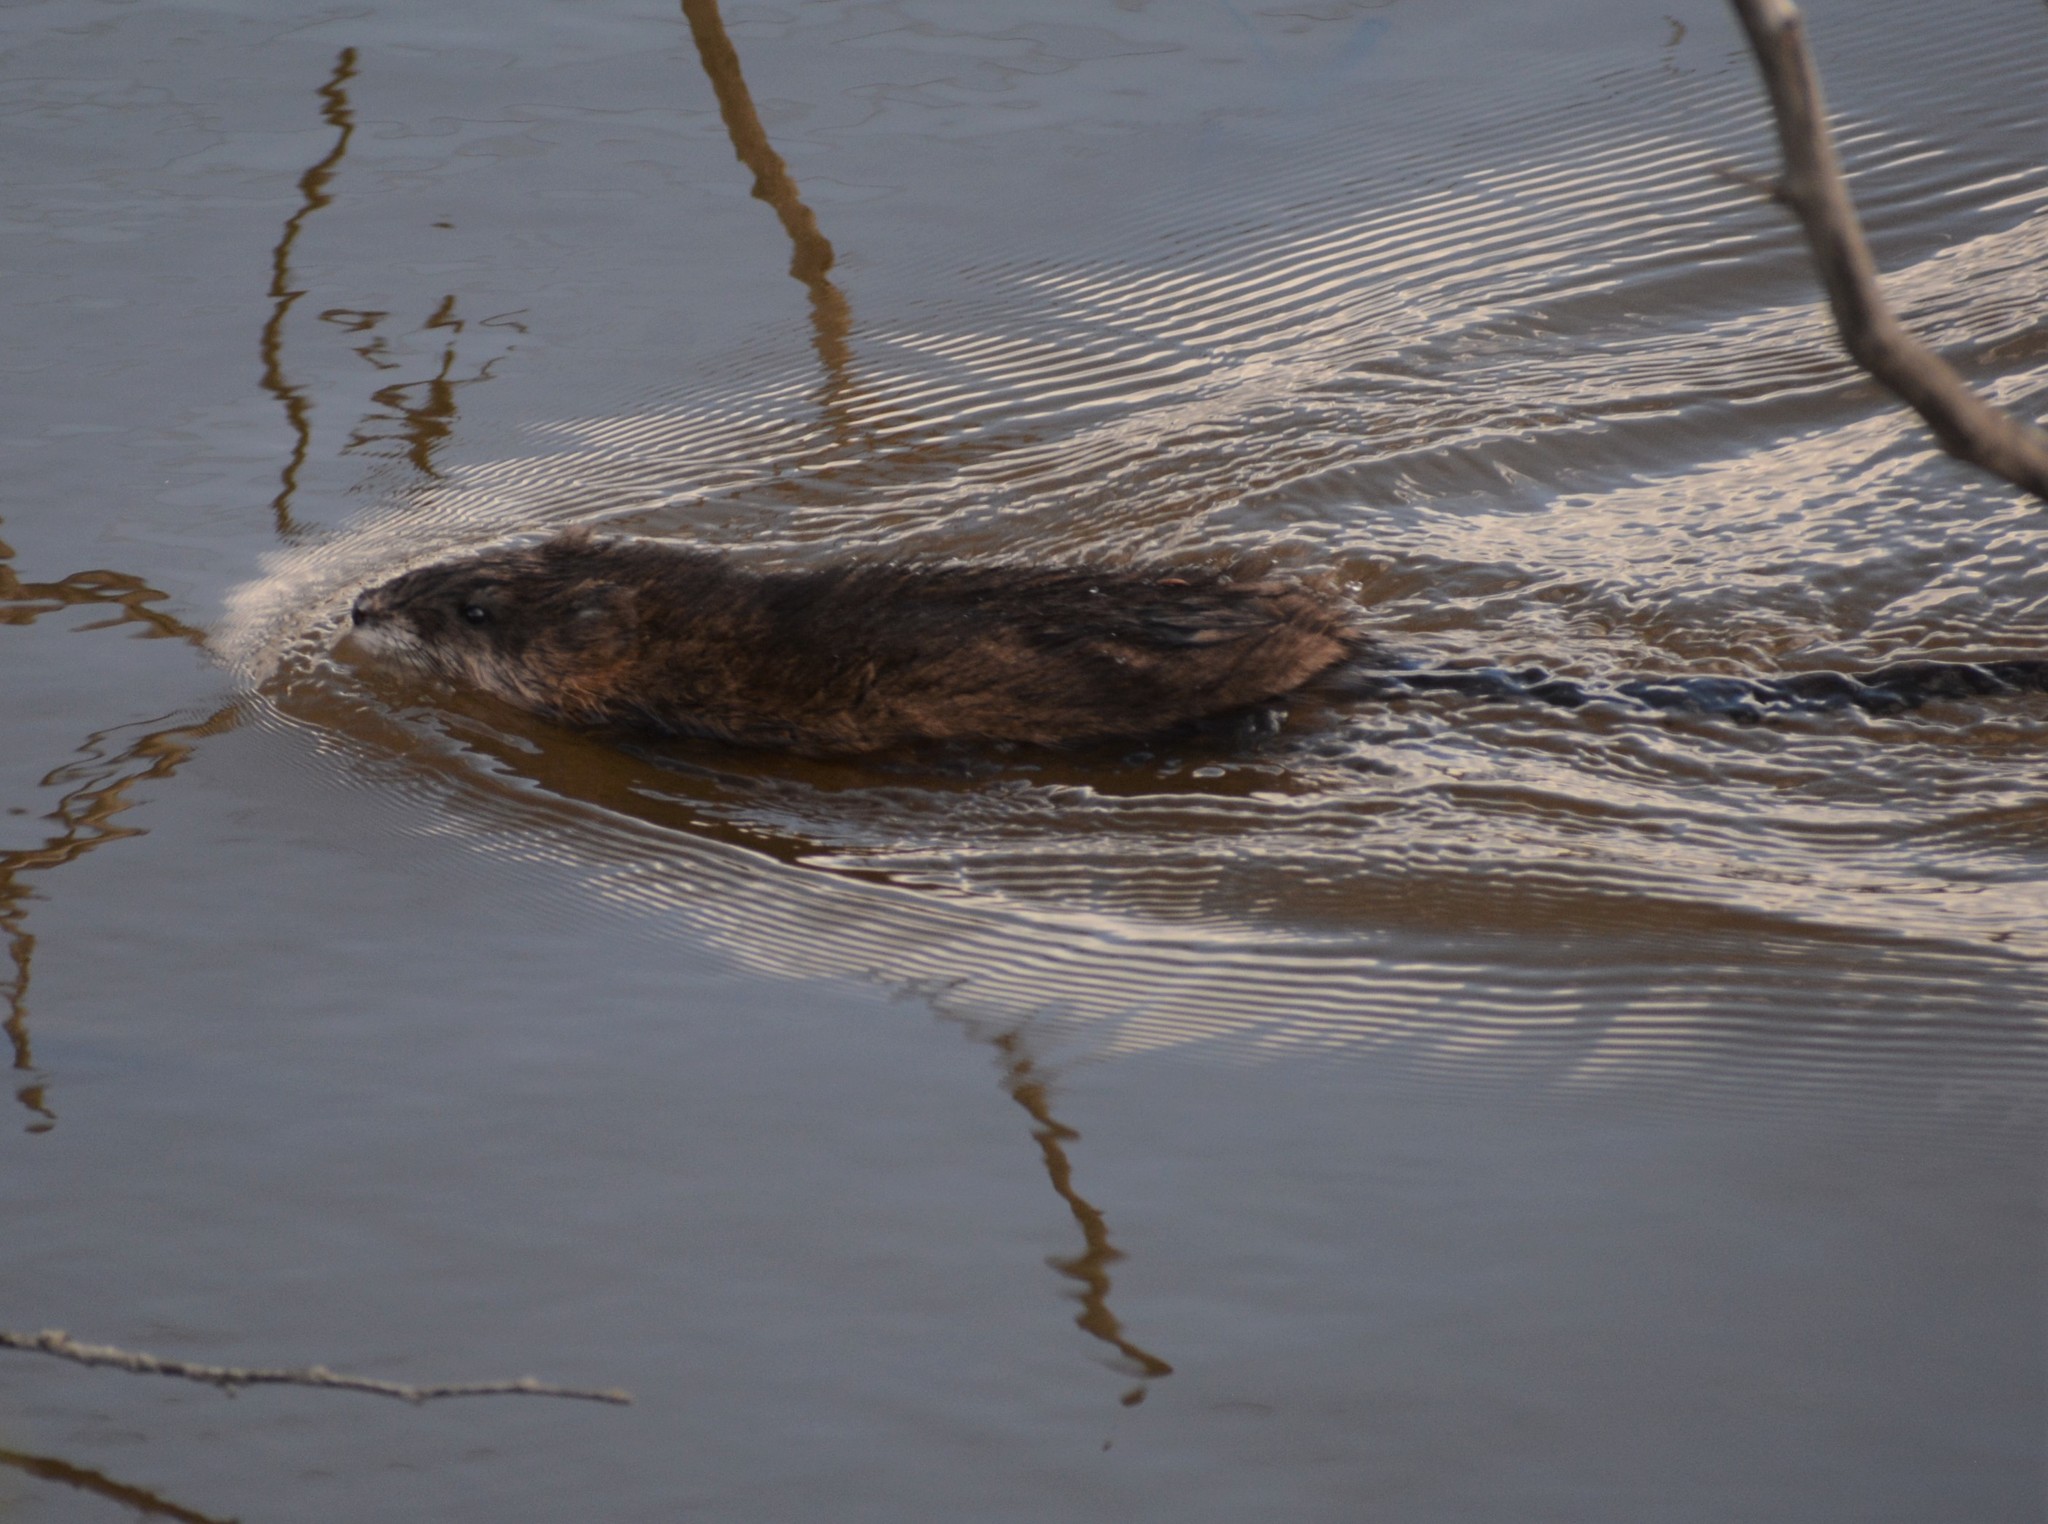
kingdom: Animalia
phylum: Chordata
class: Mammalia
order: Rodentia
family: Cricetidae
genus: Ondatra
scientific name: Ondatra zibethicus
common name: Muskrat
